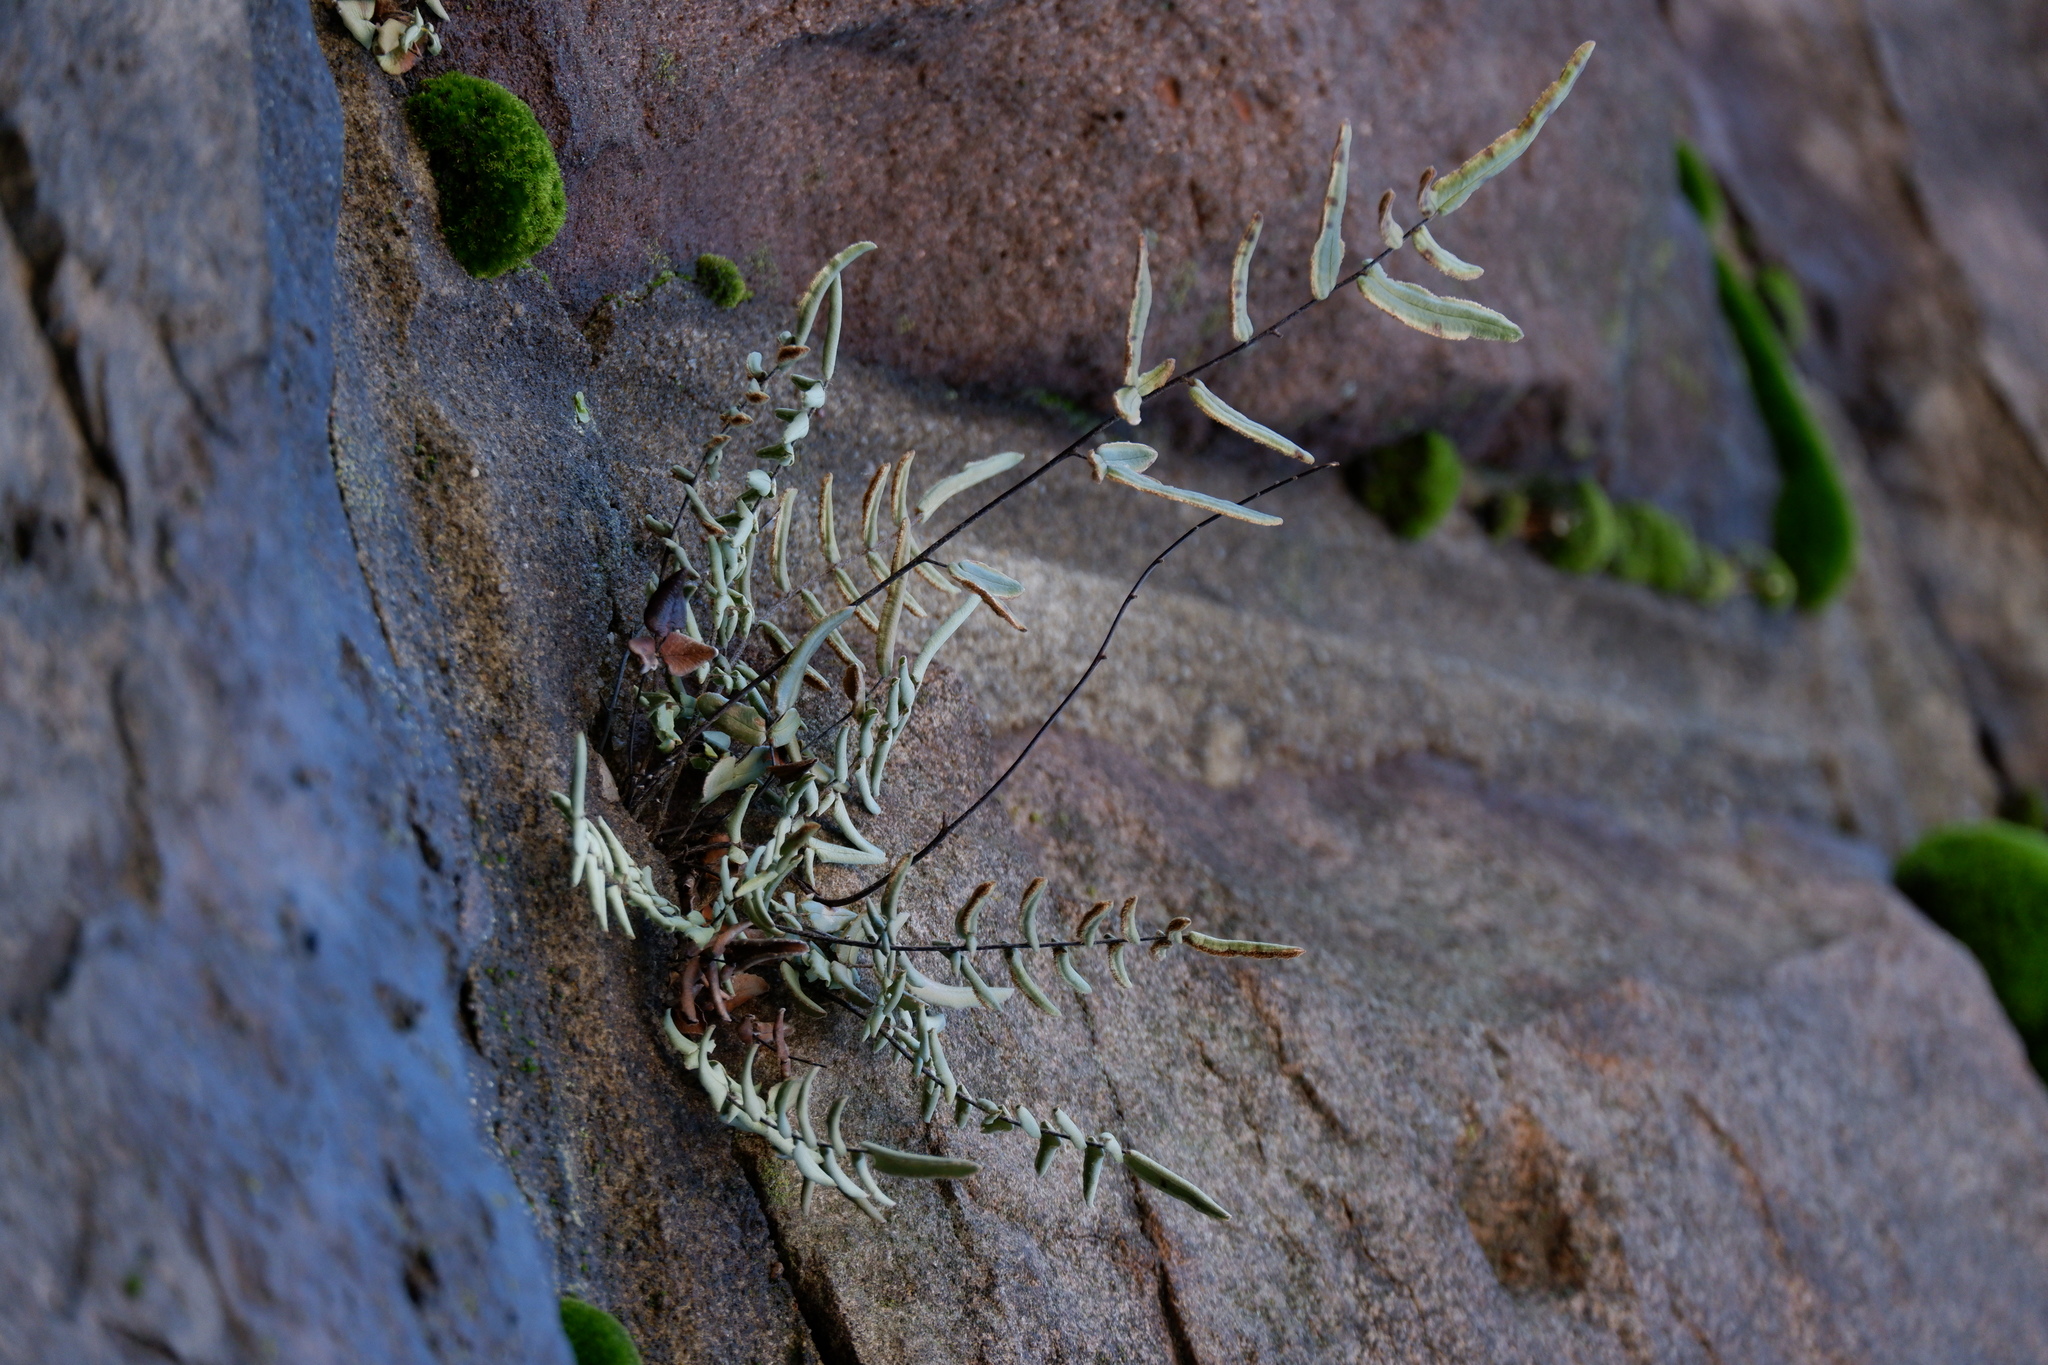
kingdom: Plantae
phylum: Tracheophyta
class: Polypodiopsida
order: Polypodiales
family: Pteridaceae
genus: Pellaea
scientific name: Pellaea atropurpurea
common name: Hairy cliffbrake
